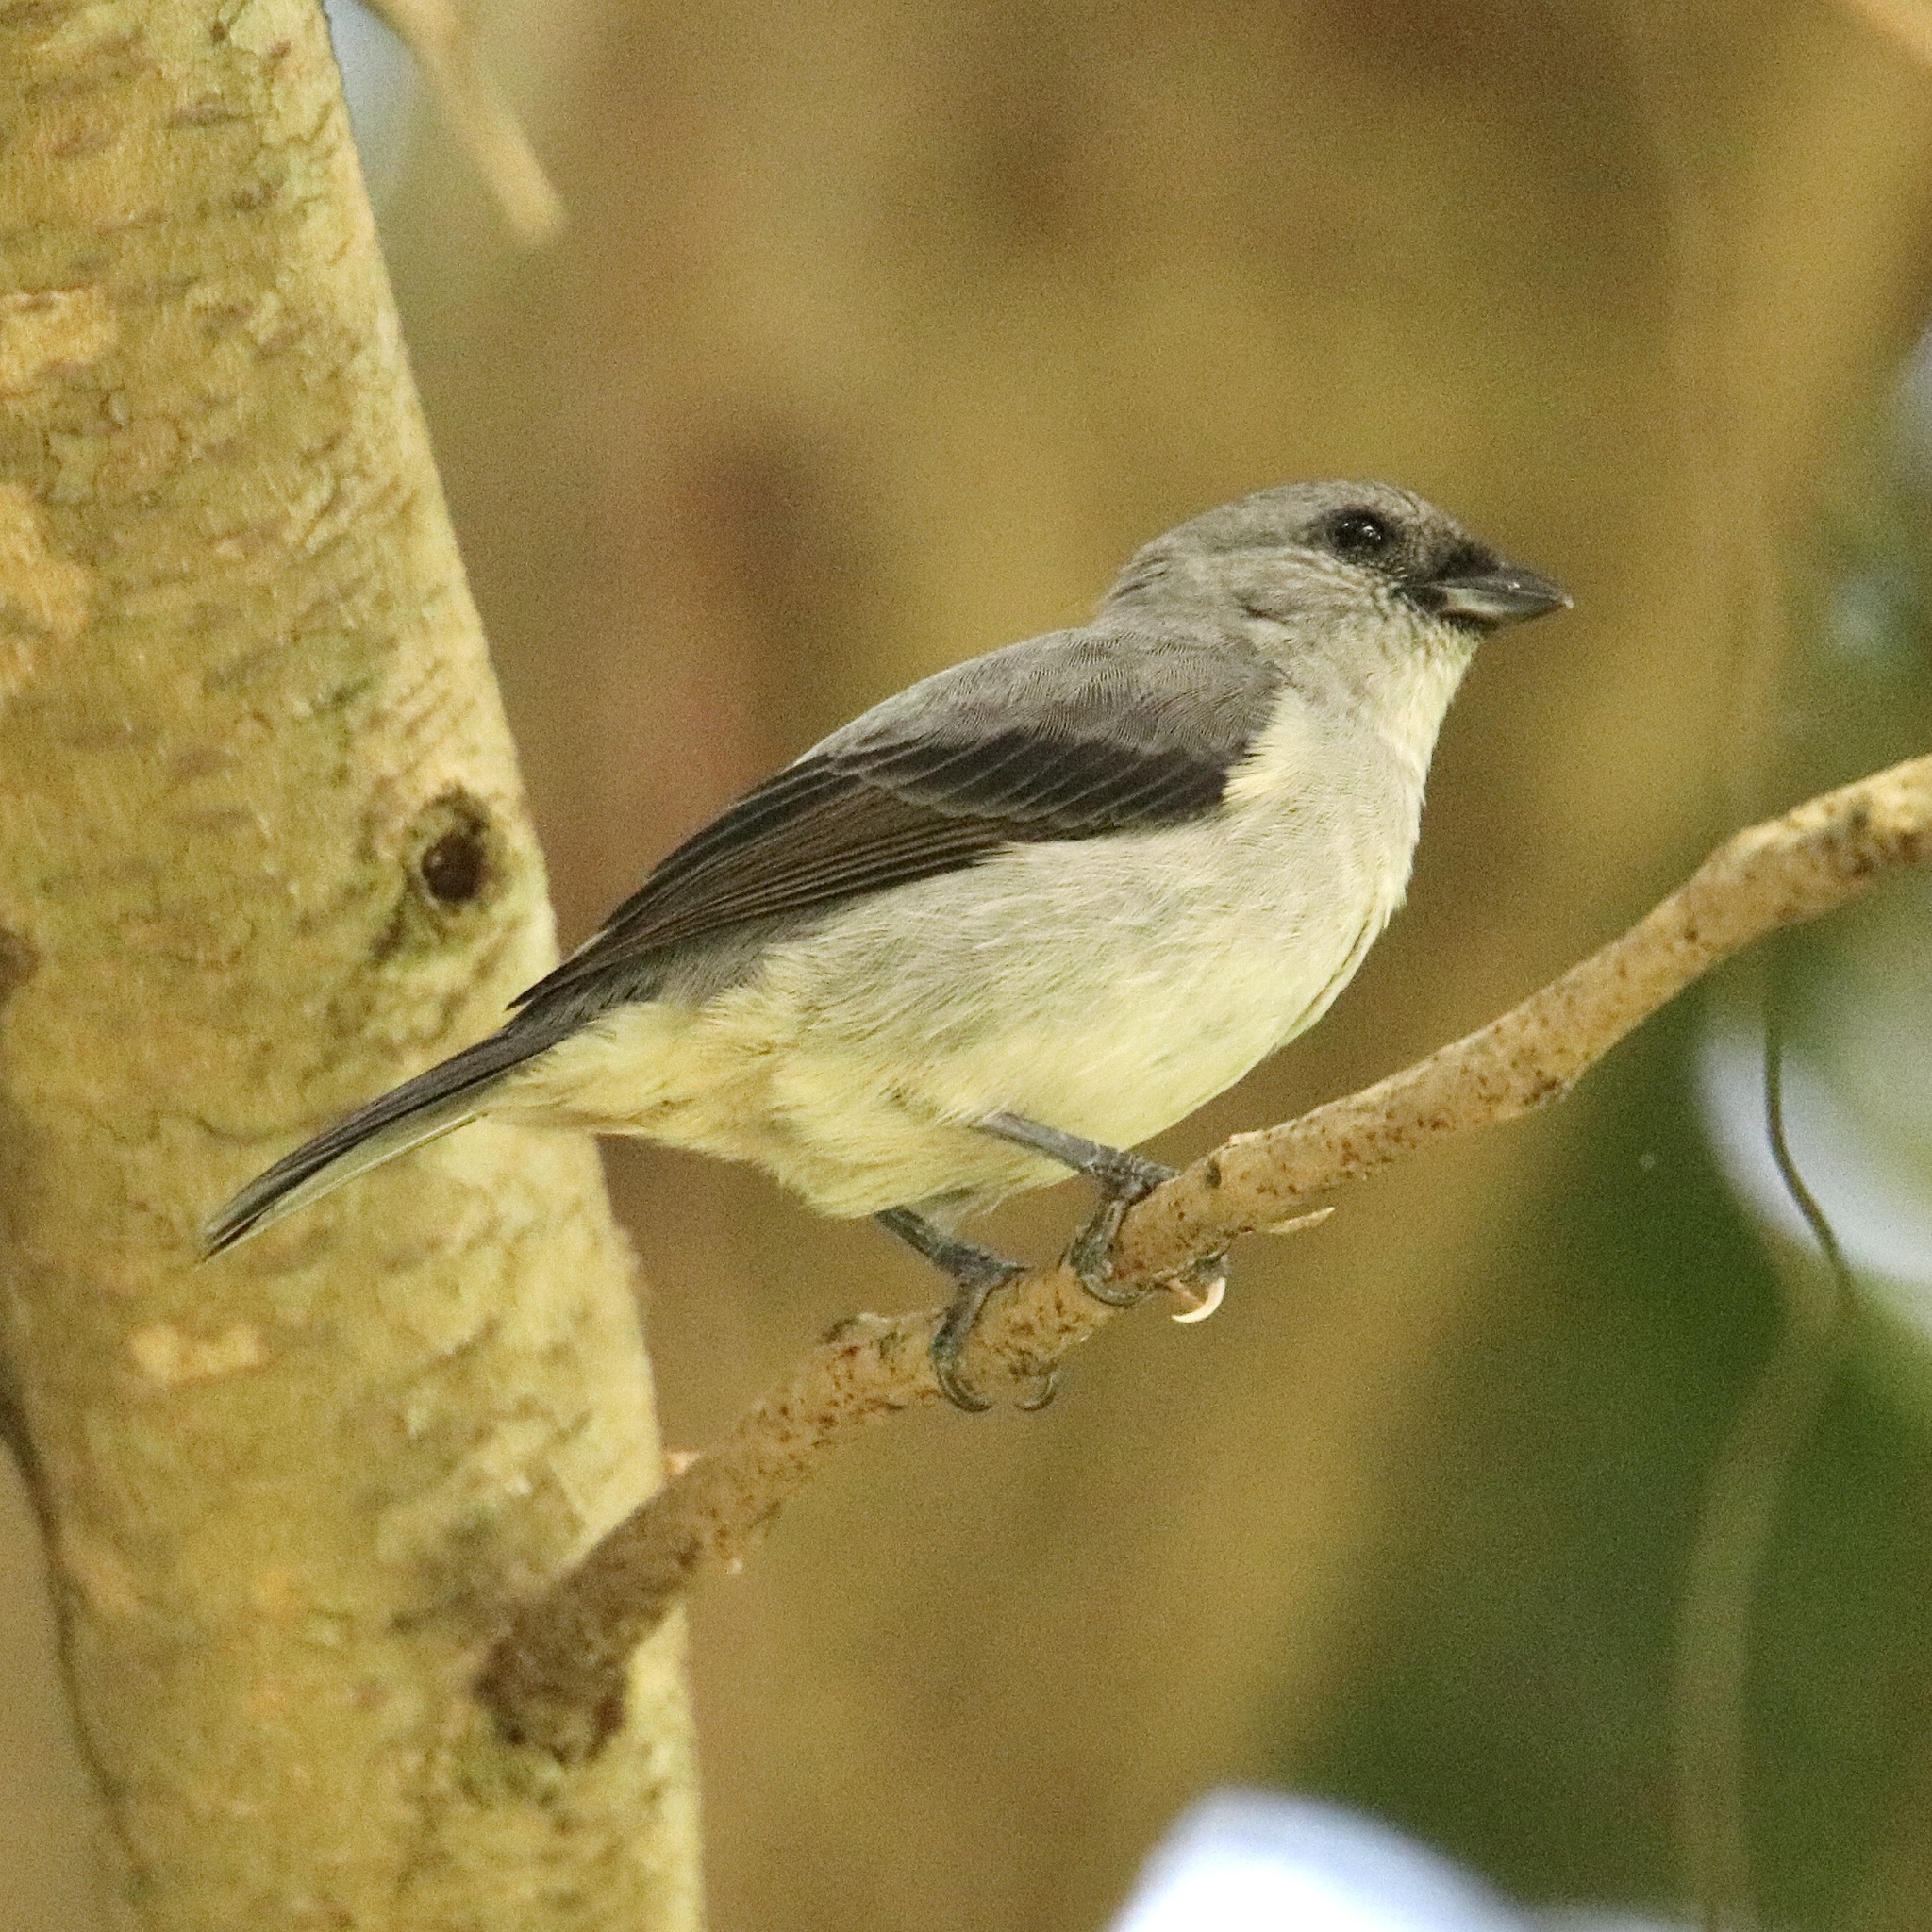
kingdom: Animalia
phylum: Chordata
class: Aves
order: Passeriformes
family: Thraupidae
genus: Tangara
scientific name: Tangara inornata
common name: Plain-colored tanager
